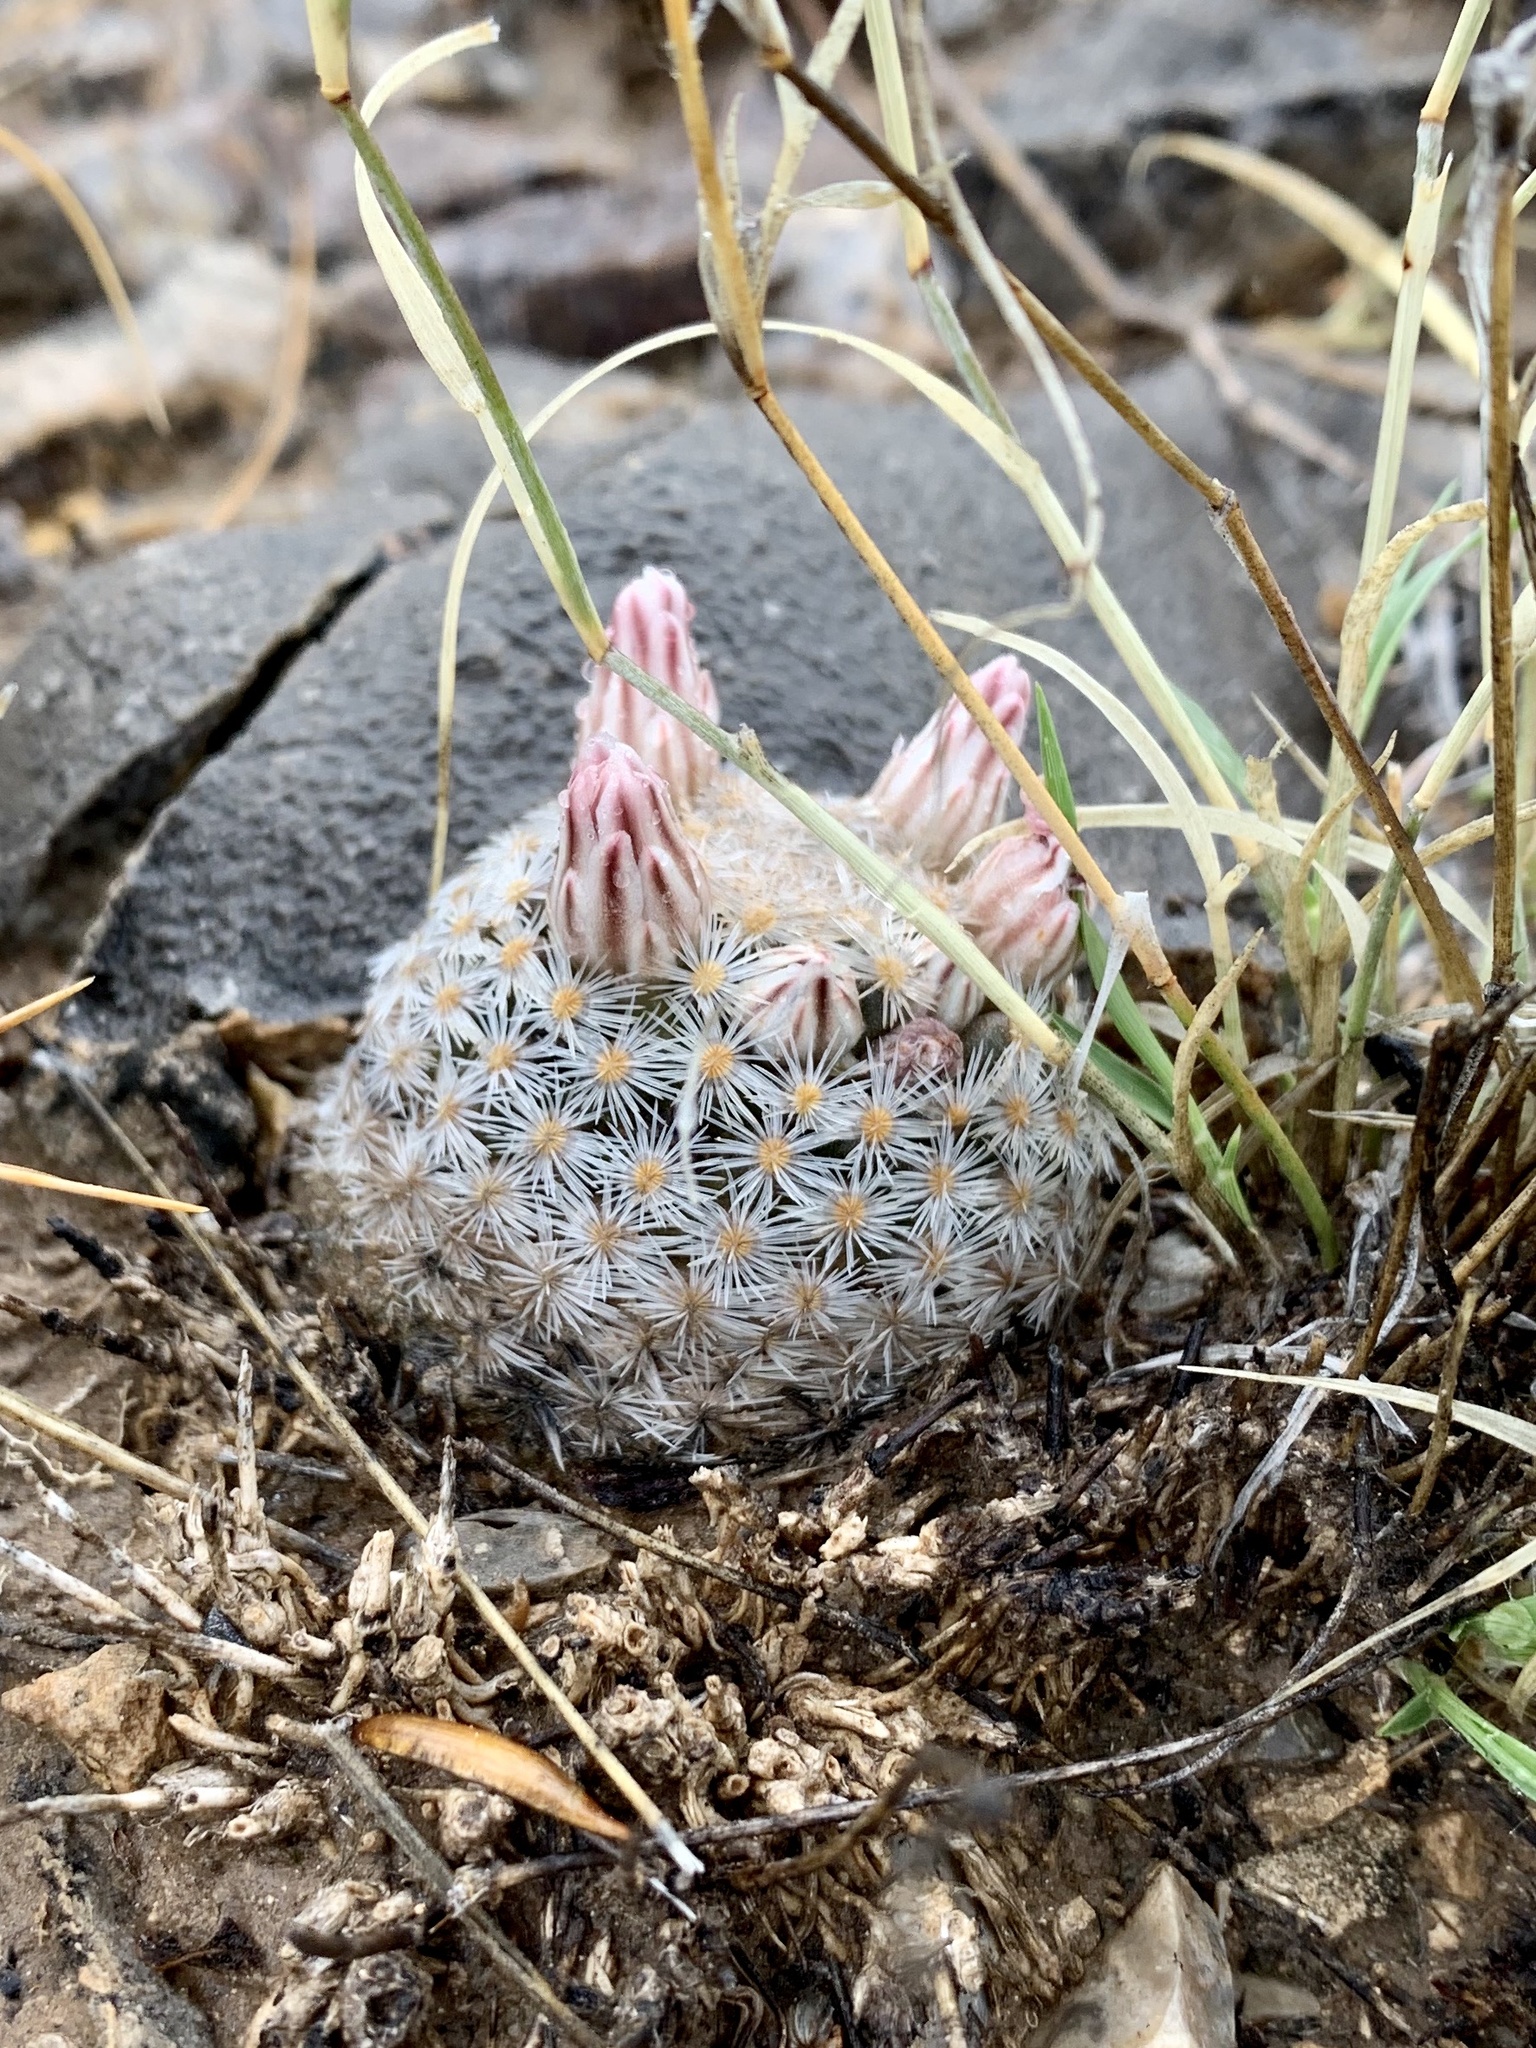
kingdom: Plantae
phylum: Tracheophyta
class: Magnoliopsida
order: Caryophyllales
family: Cactaceae
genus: Mammillaria
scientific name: Mammillaria lasiacantha
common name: Lace-spine nipple cactus
